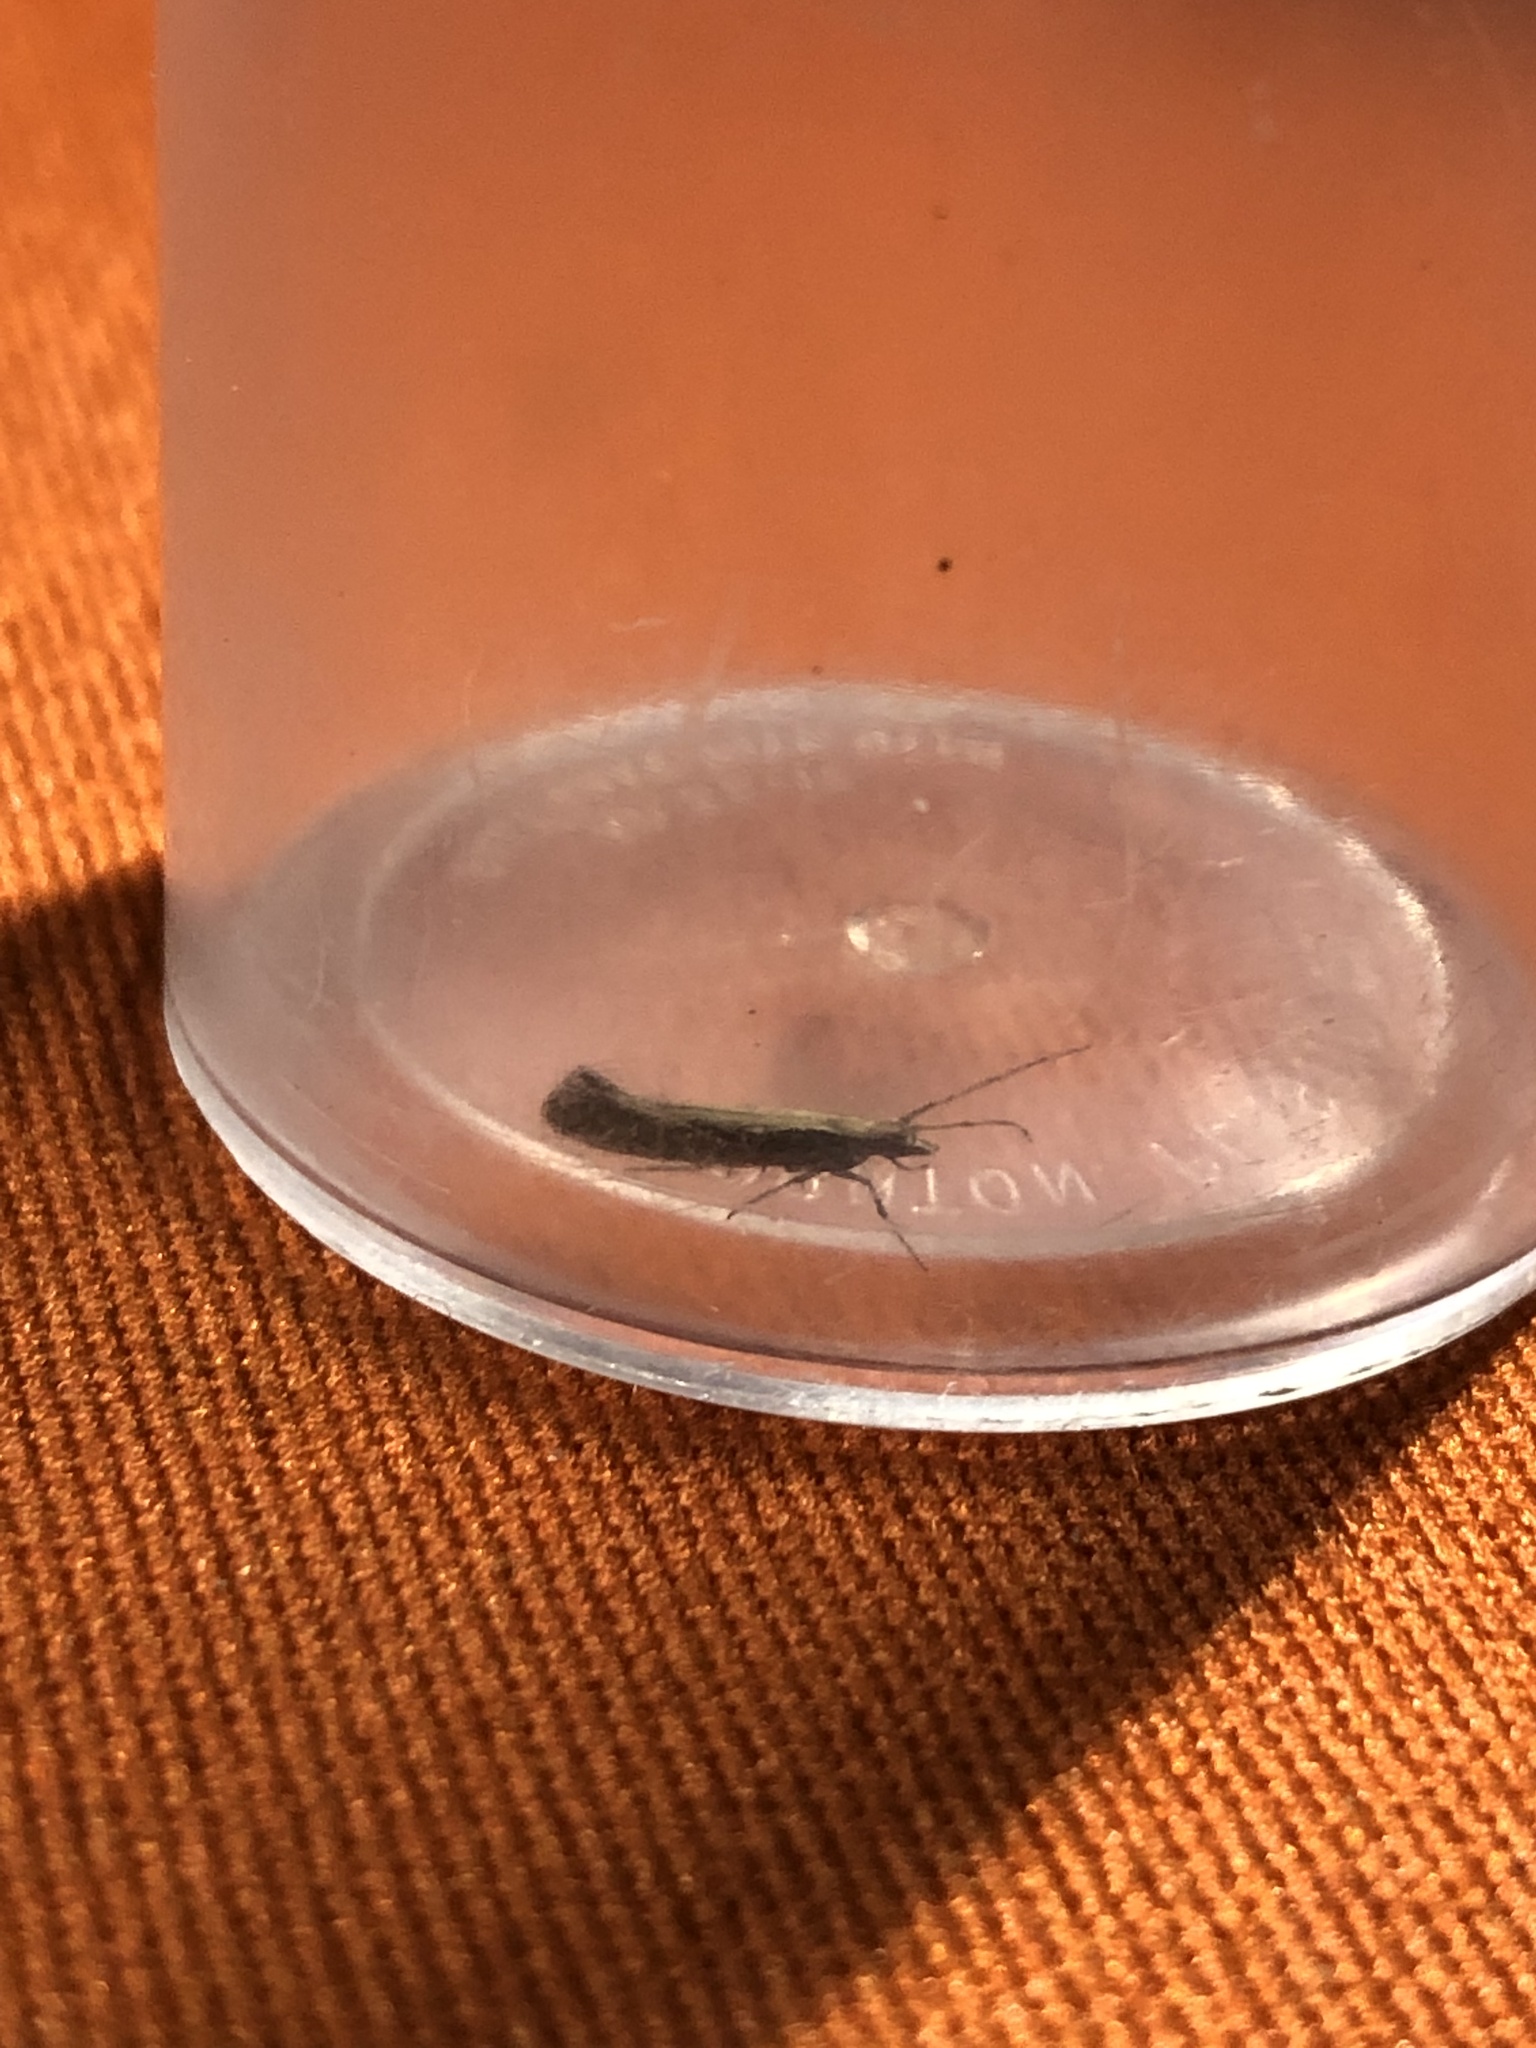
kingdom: Animalia
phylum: Arthropoda
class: Insecta
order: Lepidoptera
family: Plutellidae
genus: Plutella
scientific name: Plutella xylostella
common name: Diamond-back moth
